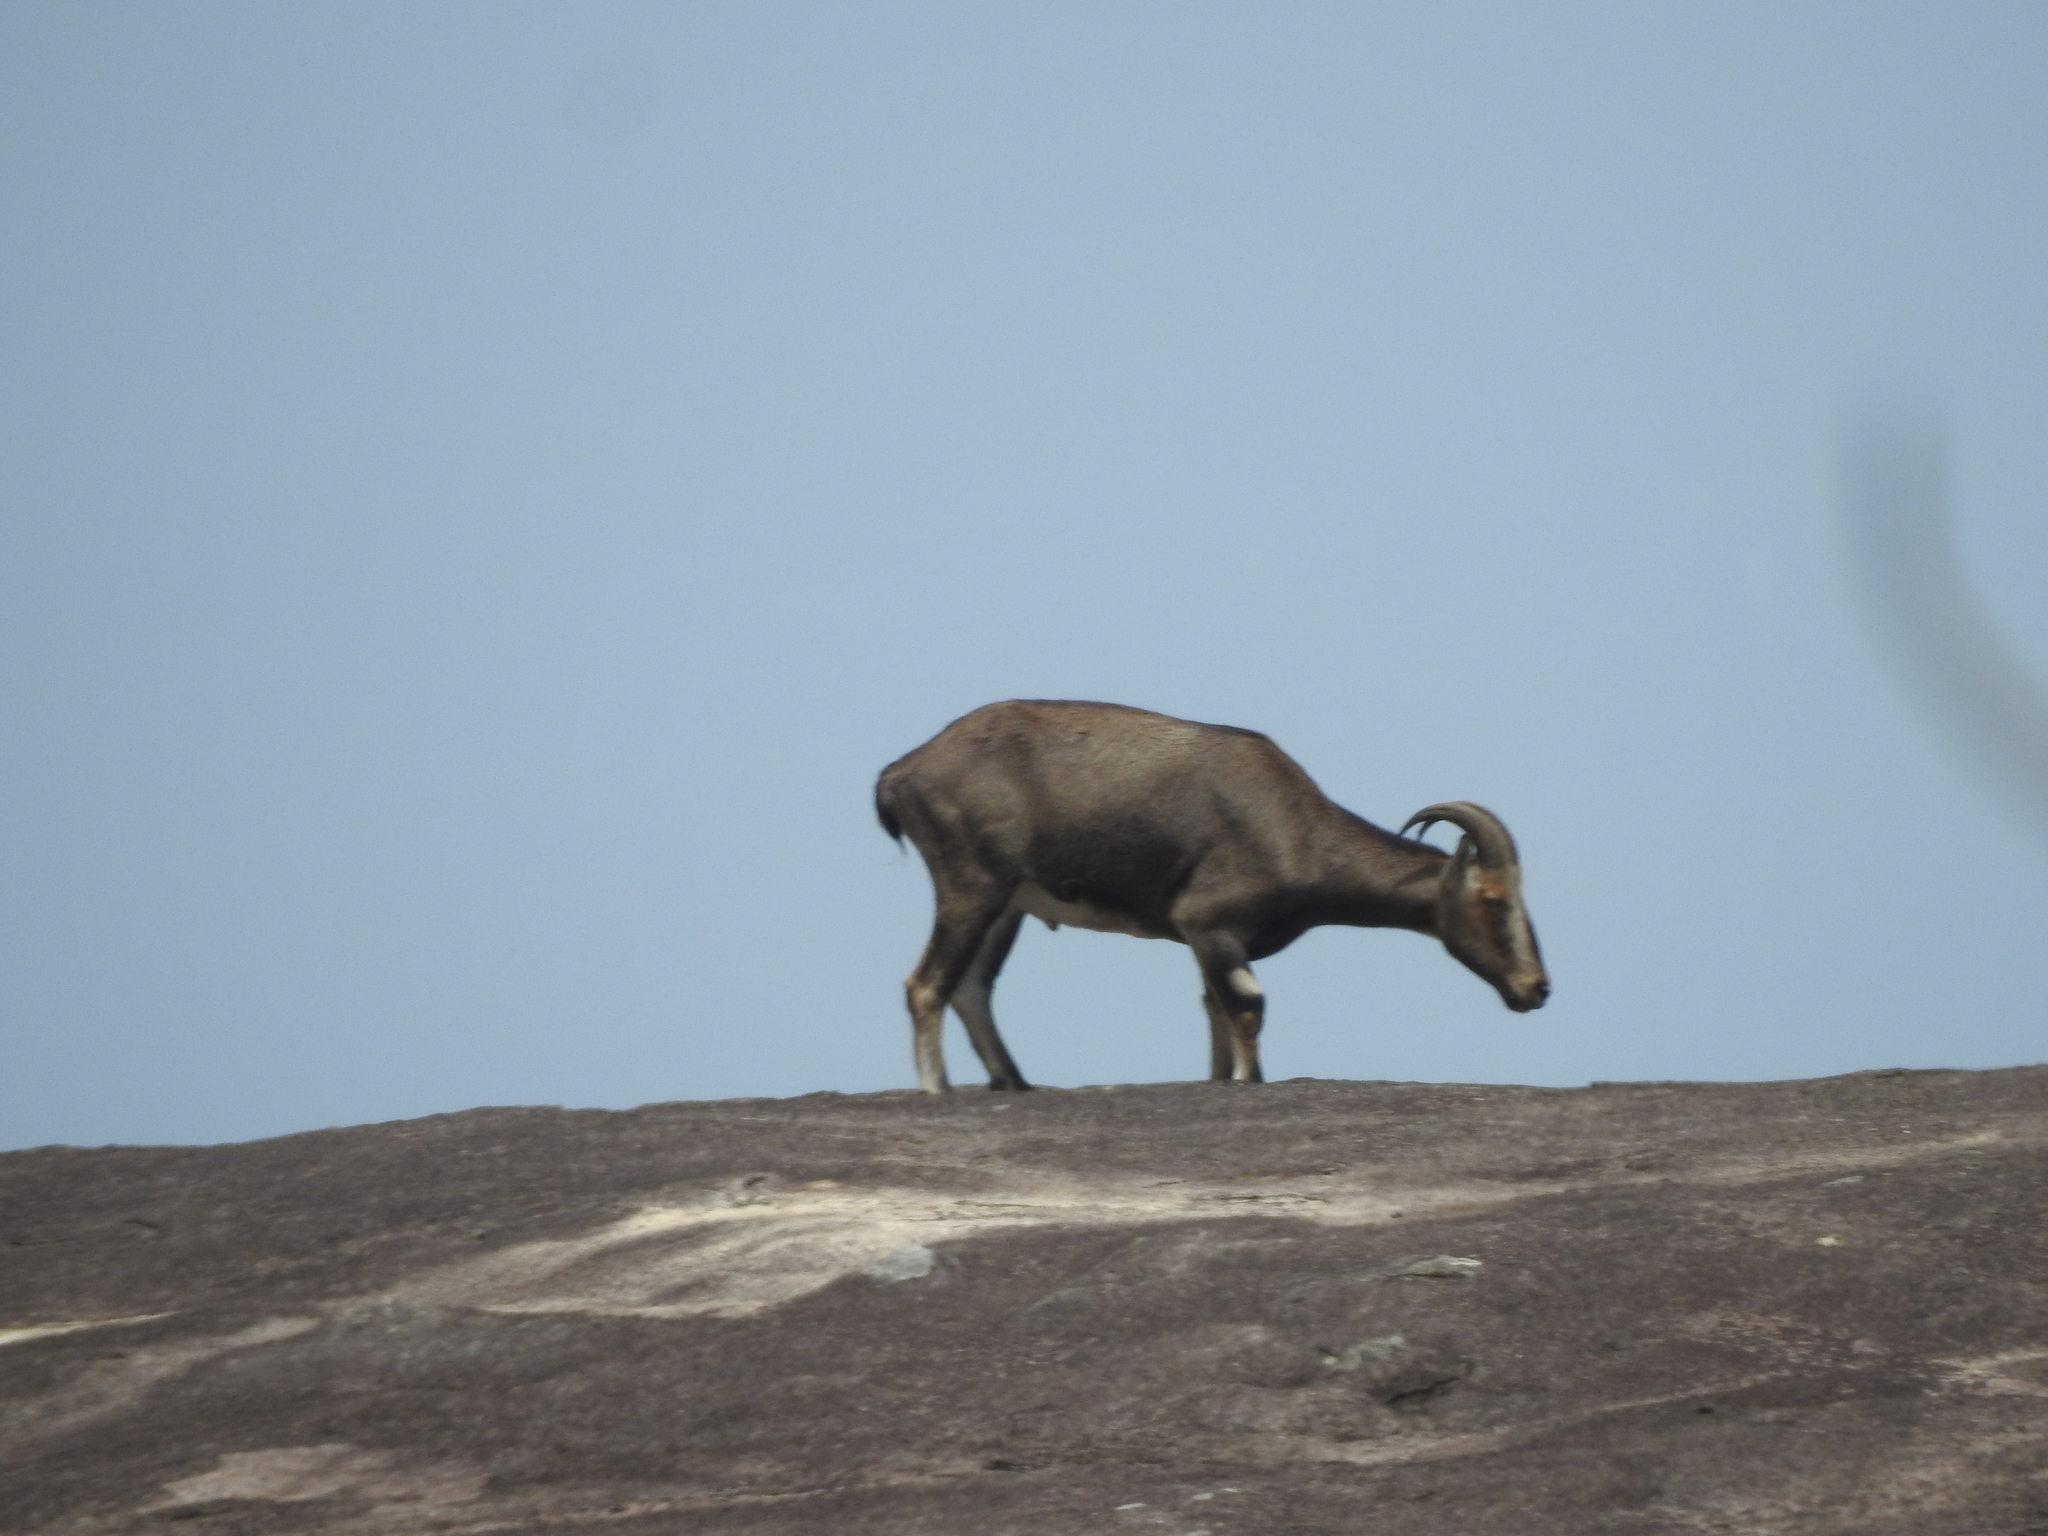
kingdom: Animalia
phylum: Chordata
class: Mammalia
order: Artiodactyla
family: Bovidae
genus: Hemitragus
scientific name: Hemitragus hylocrius
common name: Nilgiri tahr
